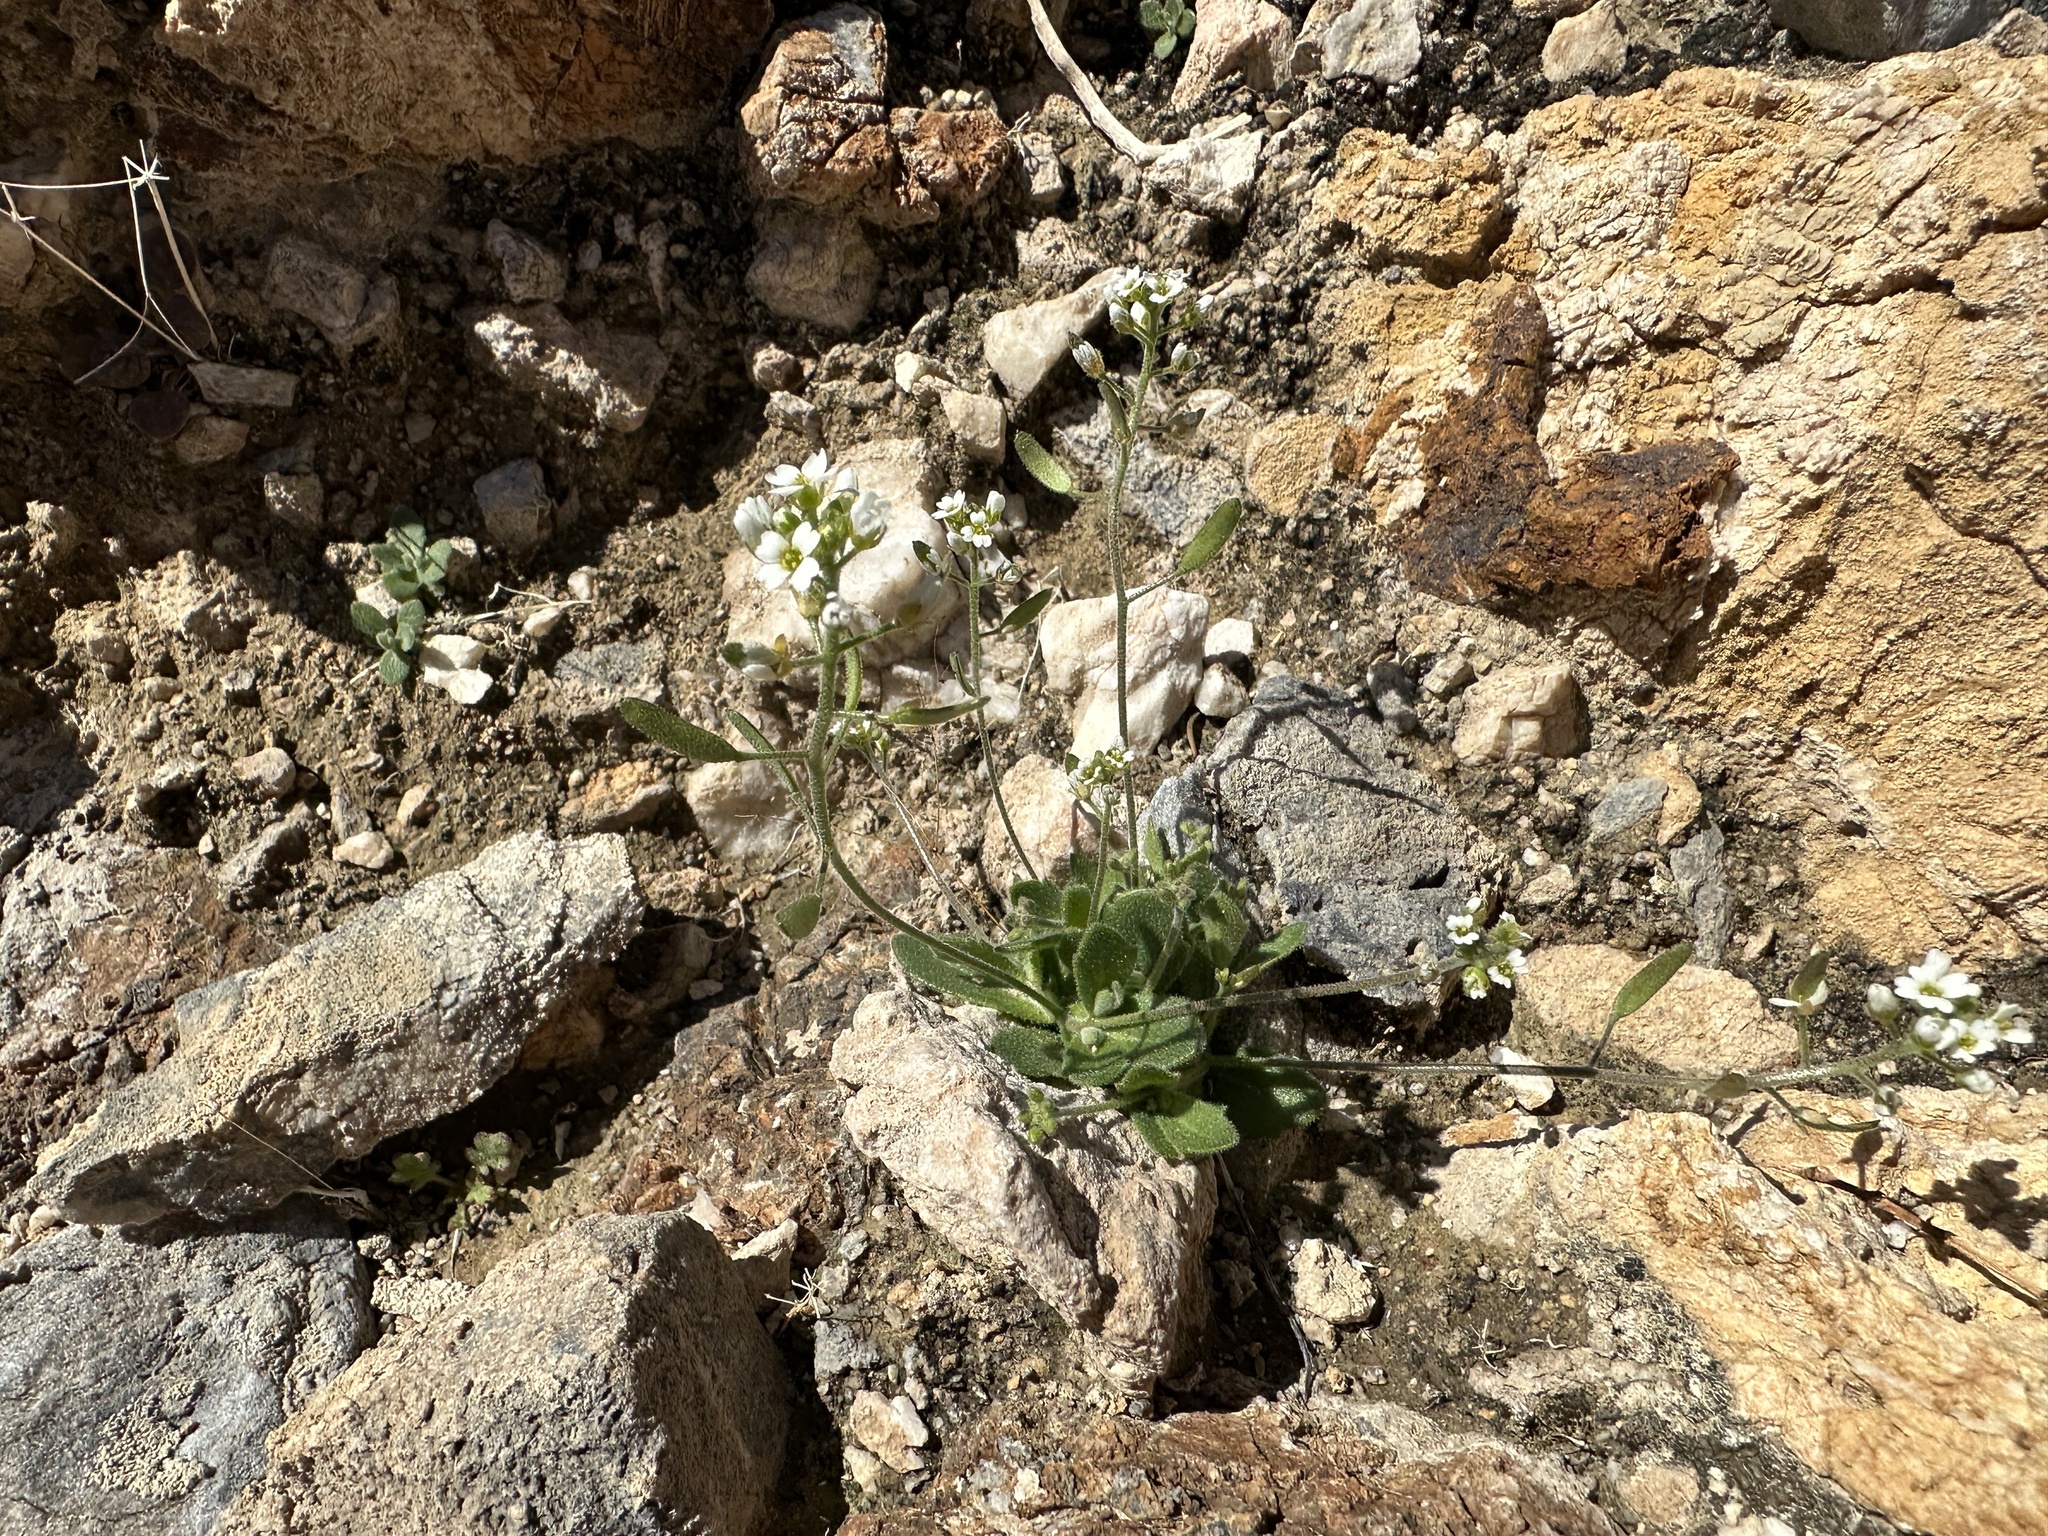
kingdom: Plantae
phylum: Tracheophyta
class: Magnoliopsida
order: Brassicales
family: Brassicaceae
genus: Tomostima
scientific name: Tomostima cuneifolia
